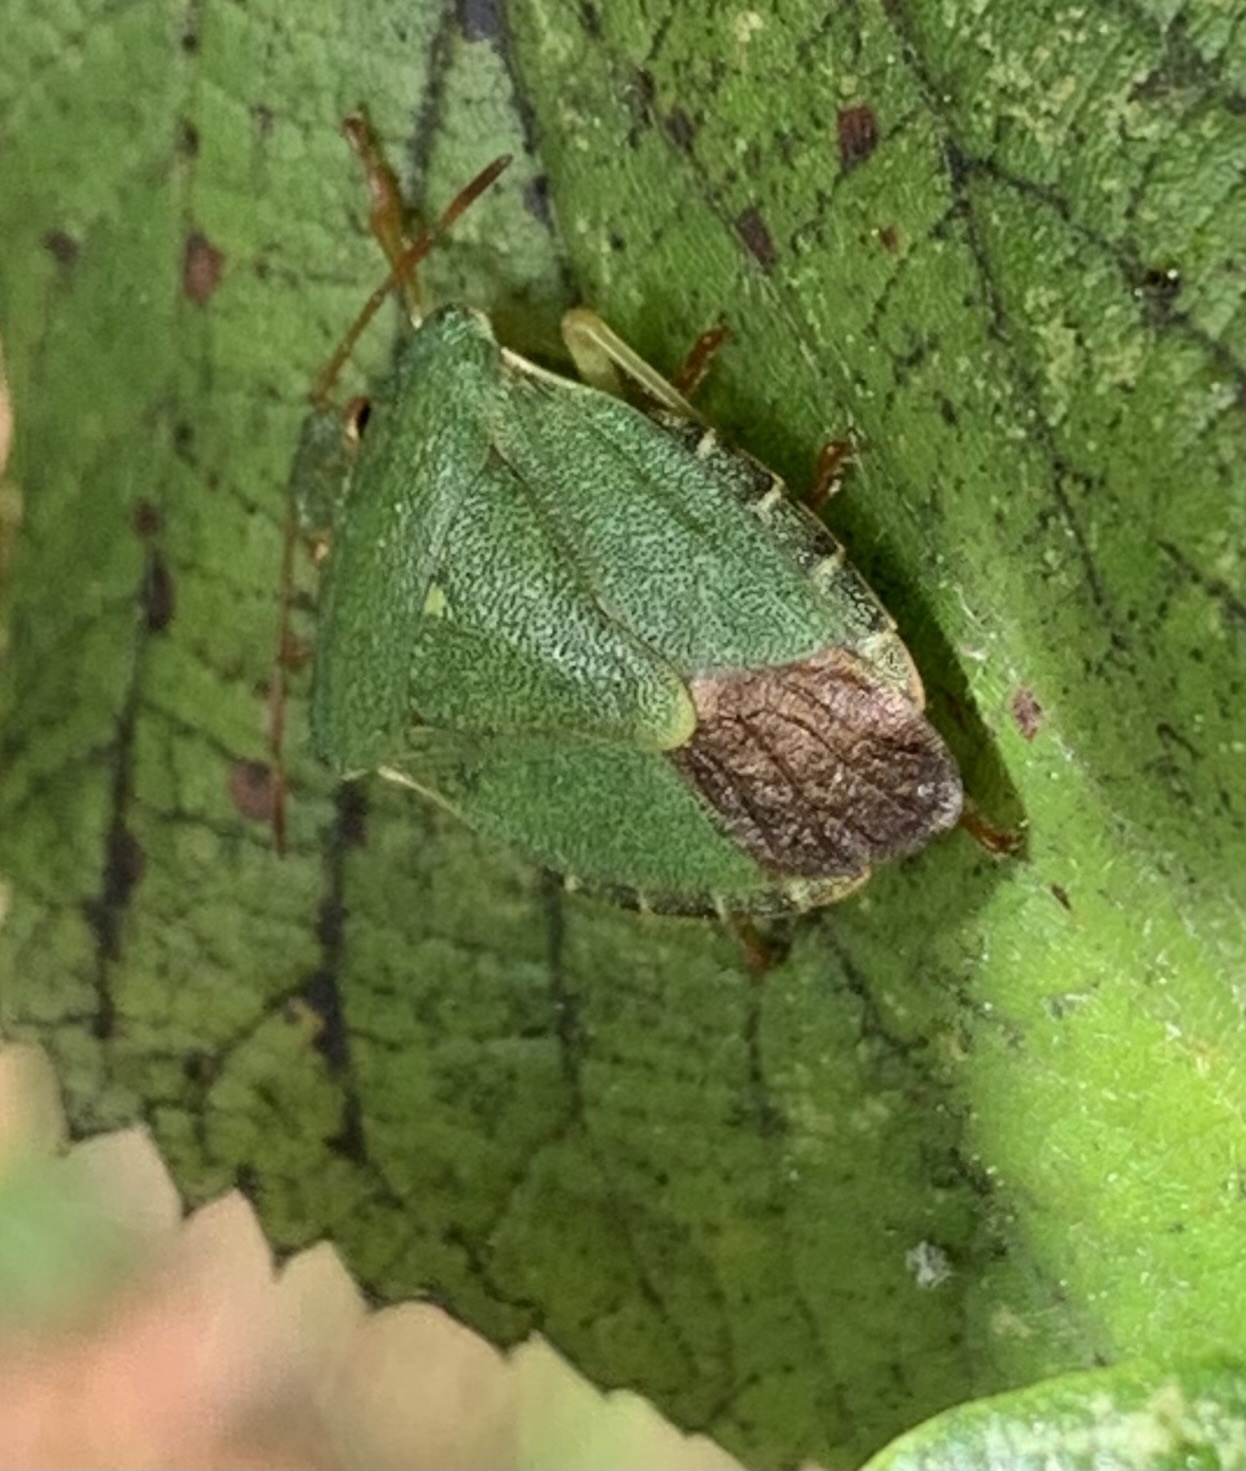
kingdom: Animalia
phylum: Arthropoda
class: Insecta
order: Hemiptera
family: Pentatomidae
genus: Palomena
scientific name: Palomena prasina
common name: Green shieldbug
